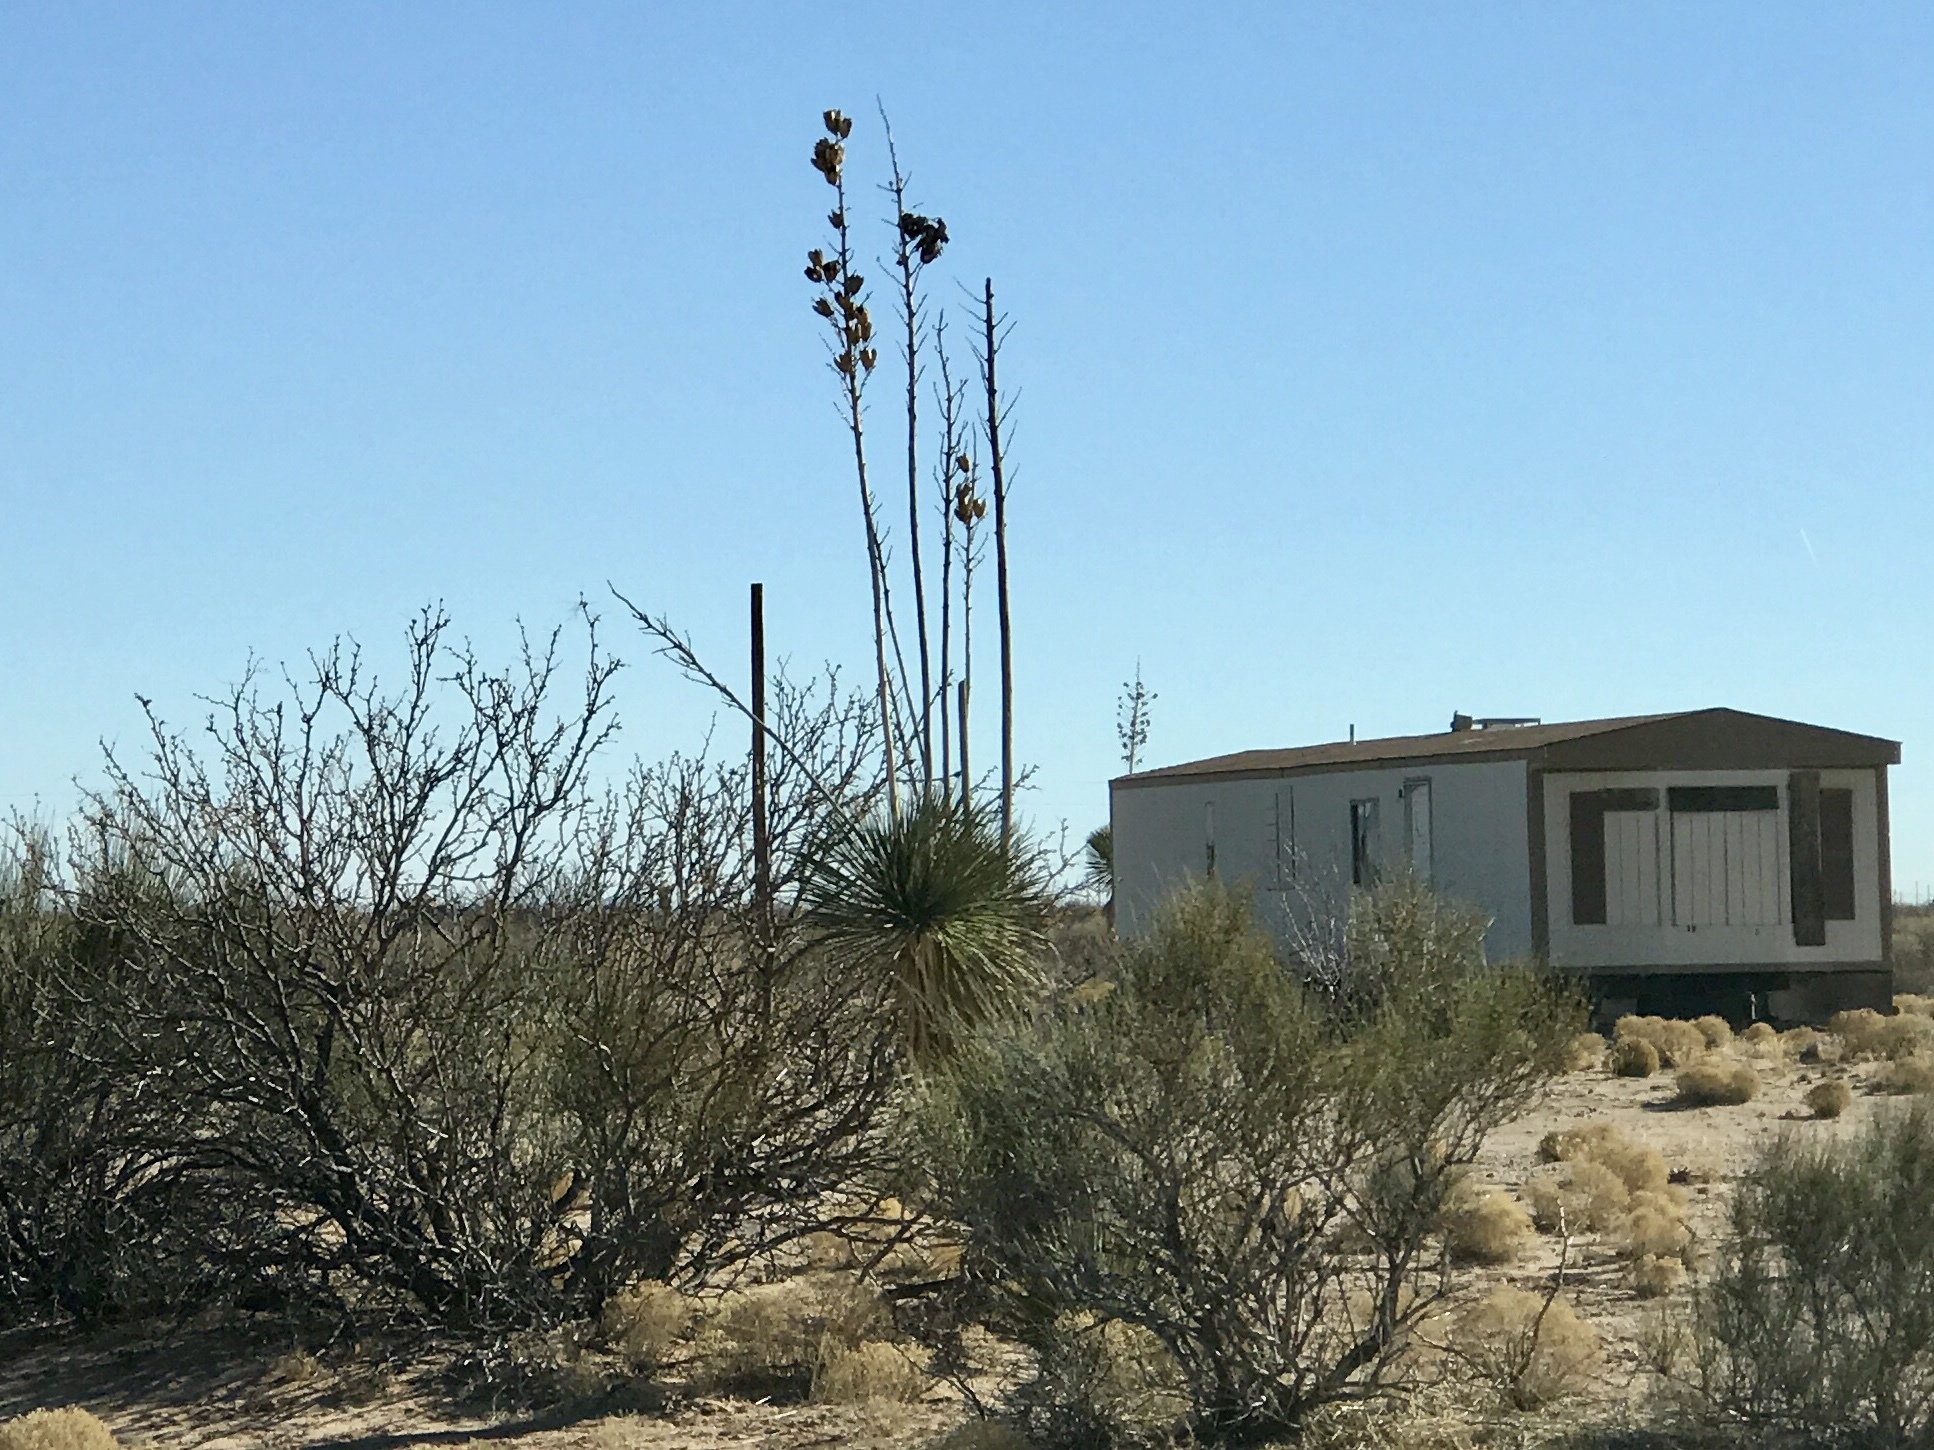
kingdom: Plantae
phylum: Tracheophyta
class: Liliopsida
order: Asparagales
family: Asparagaceae
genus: Yucca
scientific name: Yucca elata
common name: Palmella
